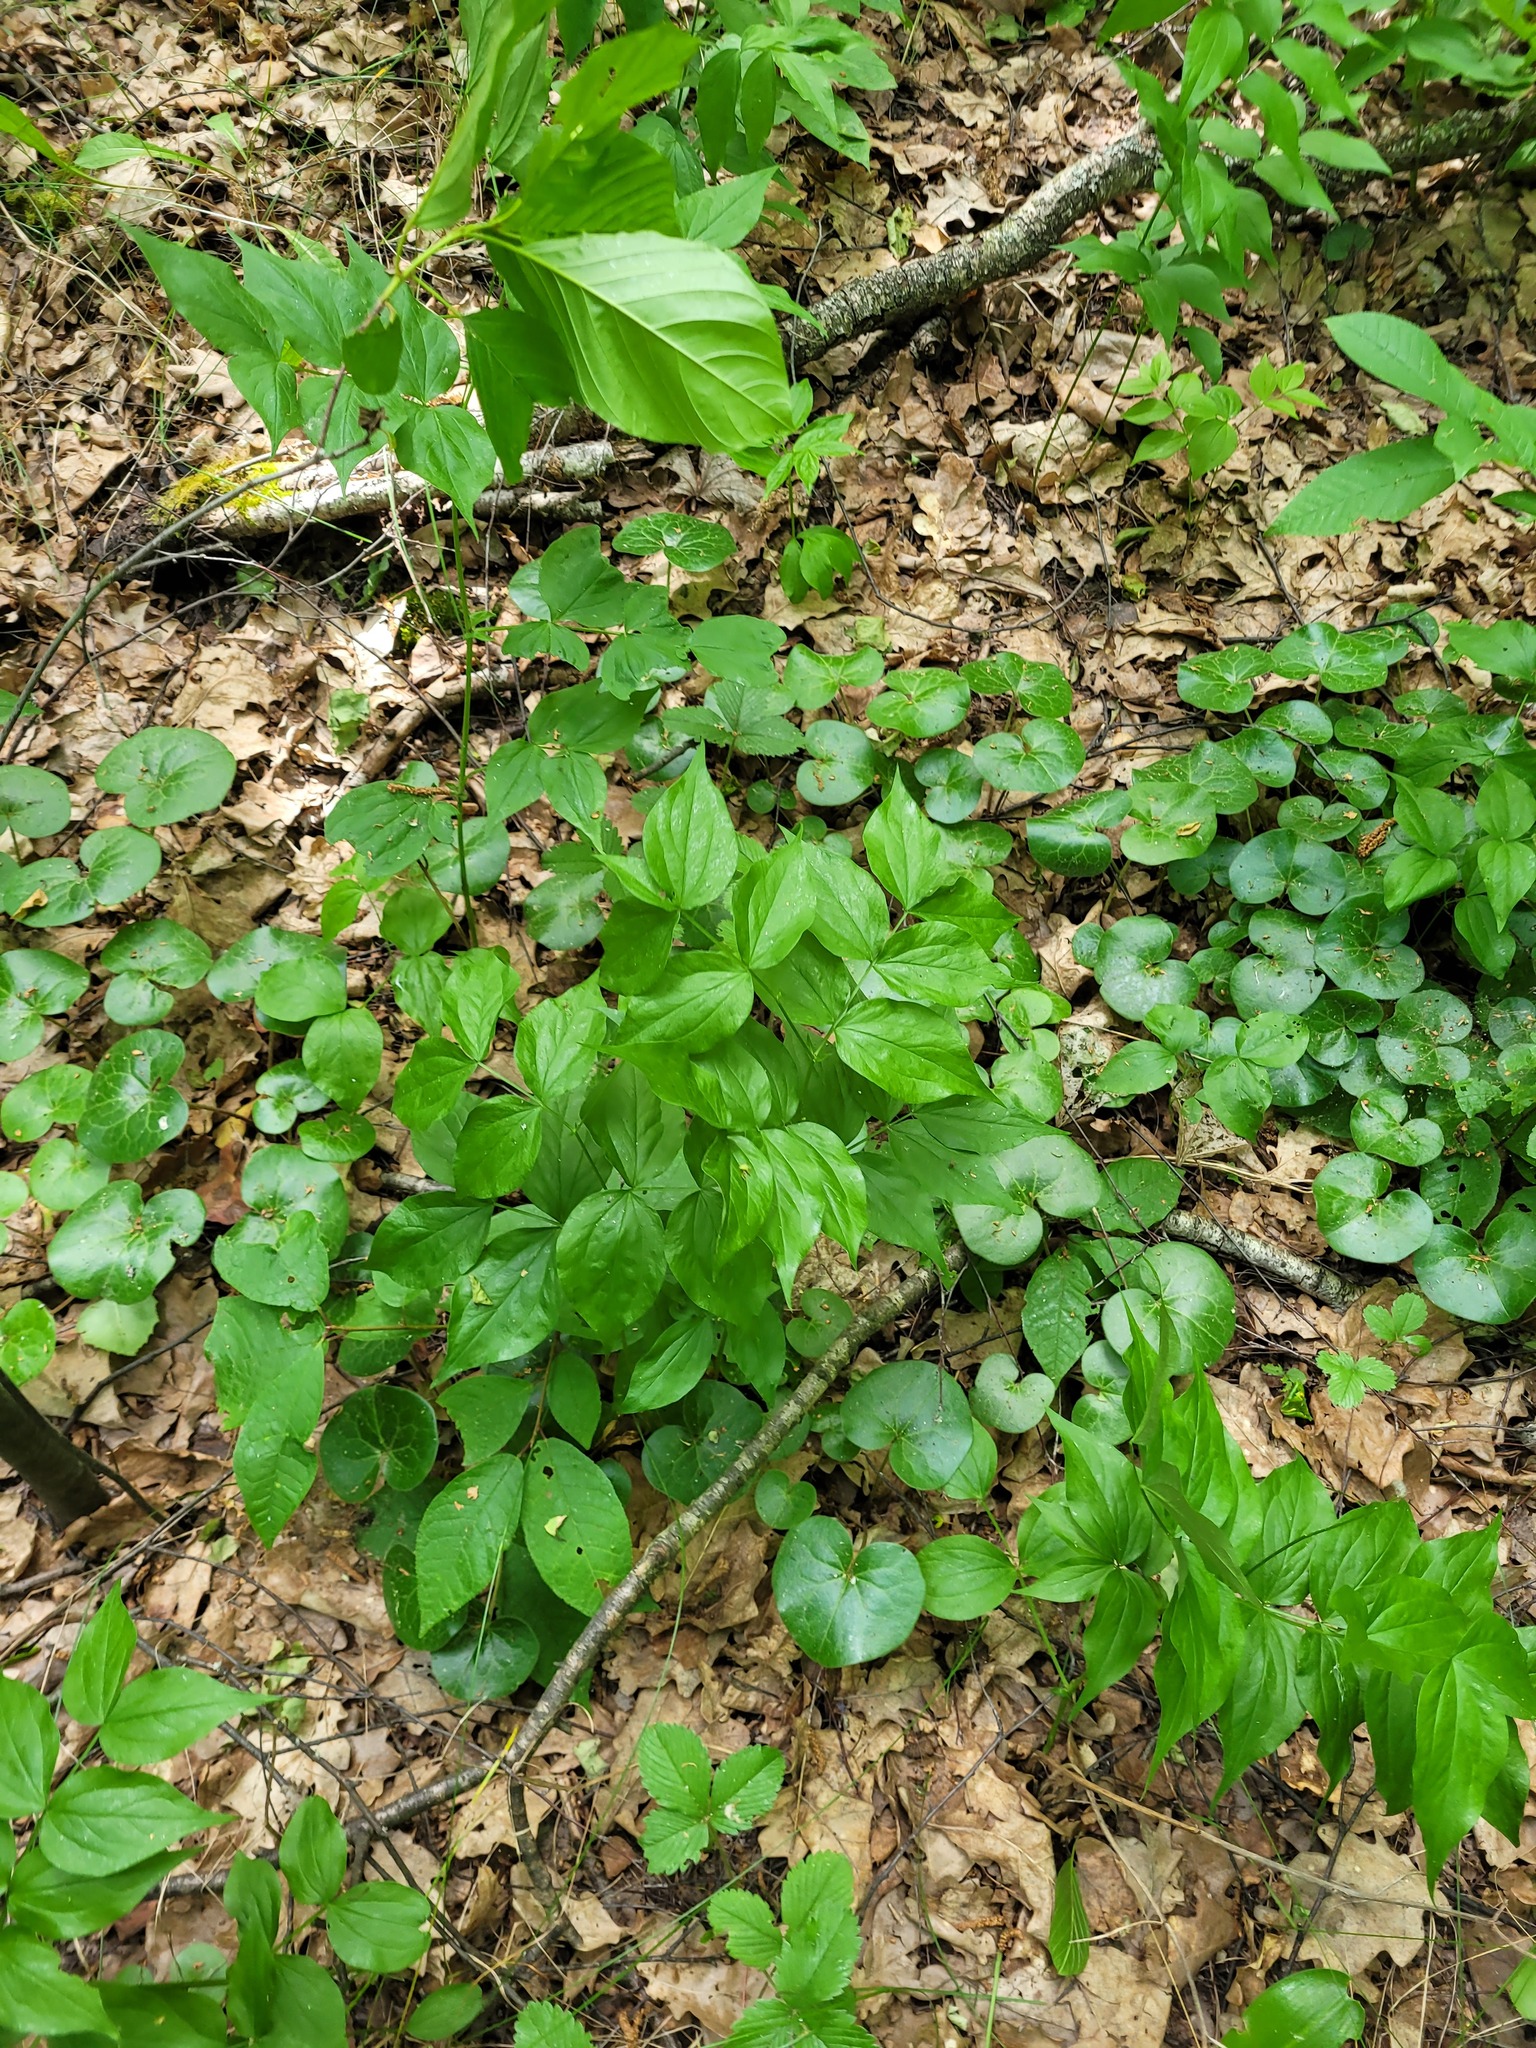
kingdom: Plantae
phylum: Tracheophyta
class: Magnoliopsida
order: Fabales
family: Fabaceae
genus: Lathyrus
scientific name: Lathyrus vernus
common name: Spring pea
